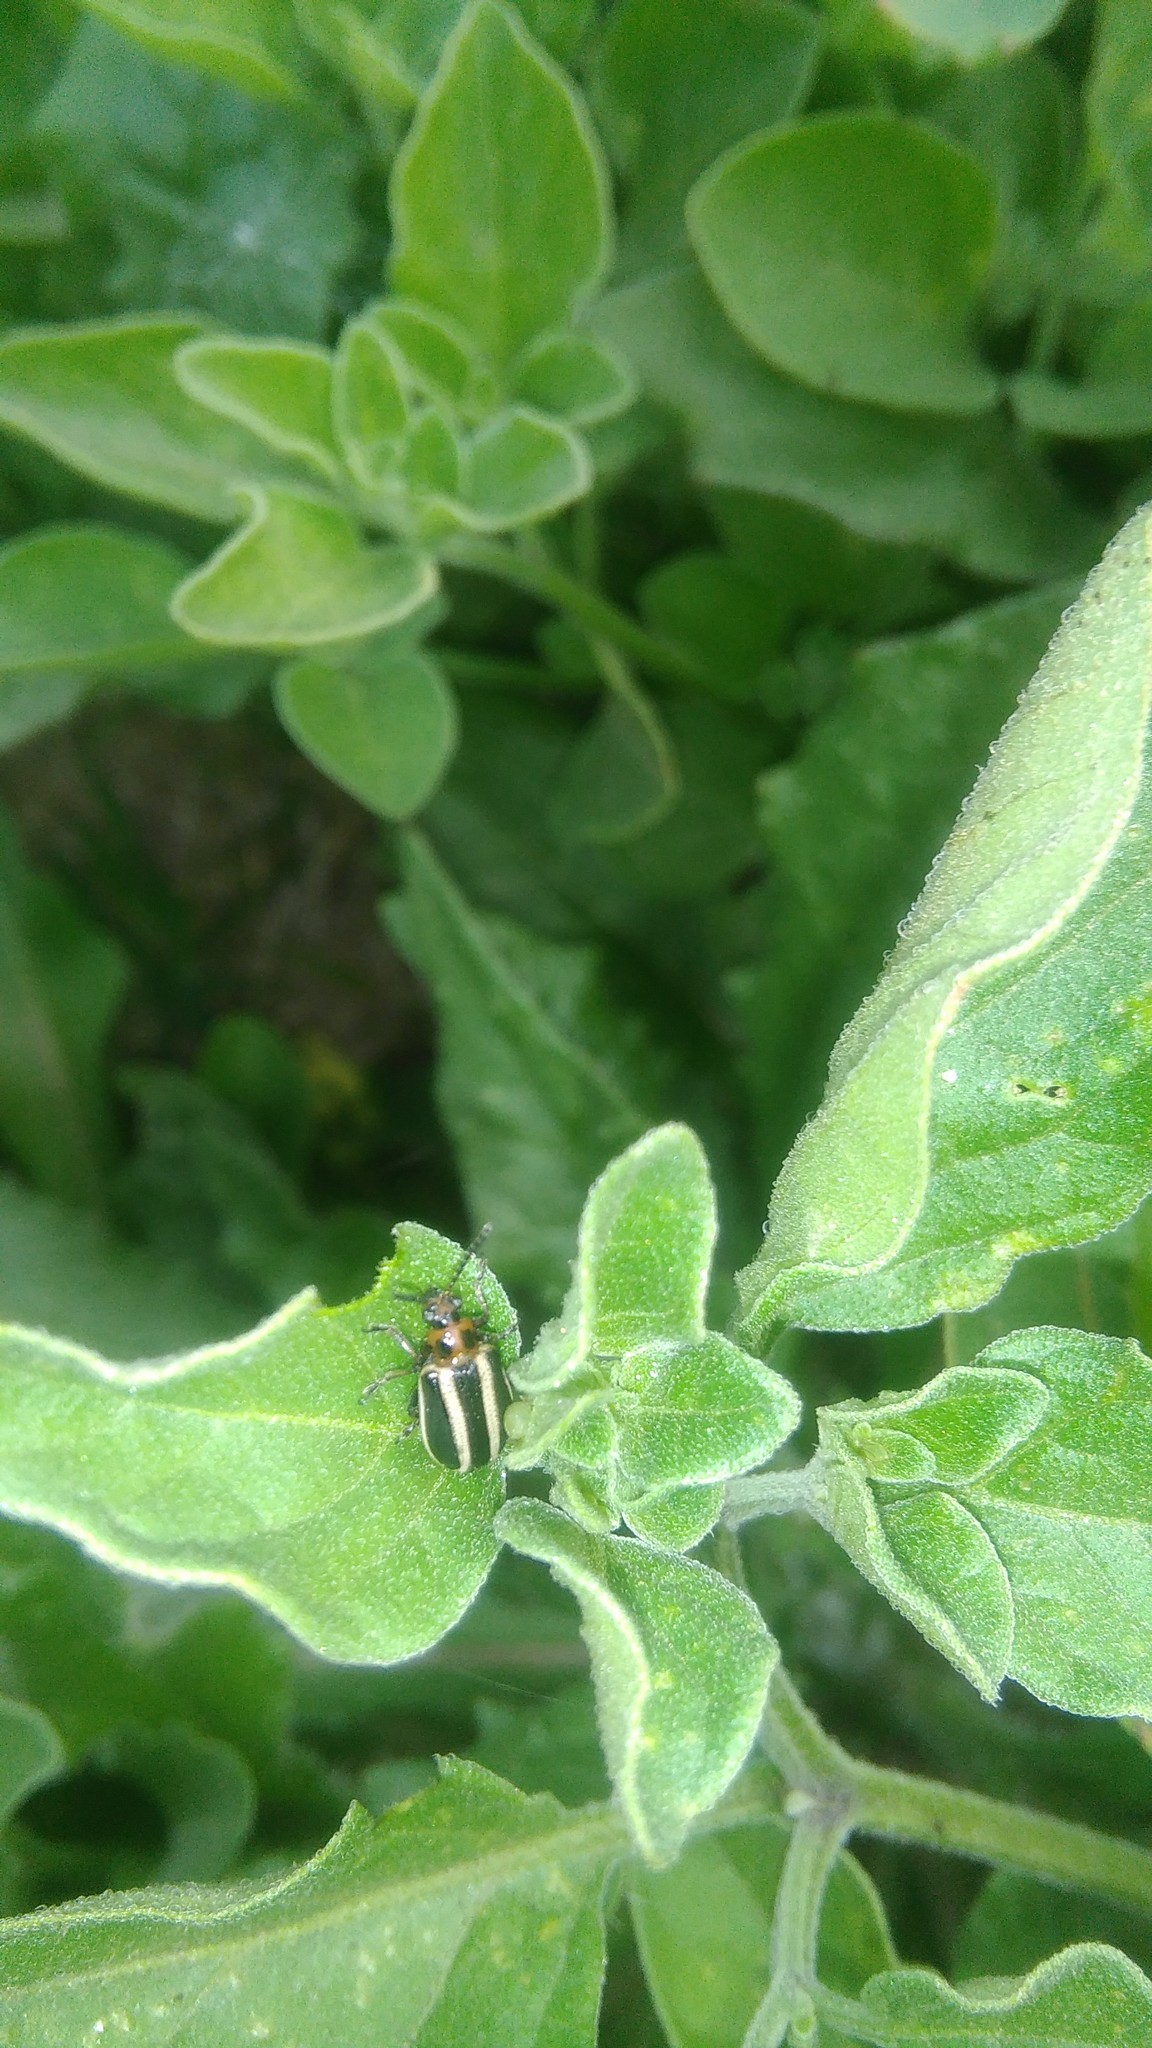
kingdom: Animalia
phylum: Arthropoda
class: Insecta
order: Coleoptera
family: Chrysomelidae
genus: Lema
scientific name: Lema bilineata
